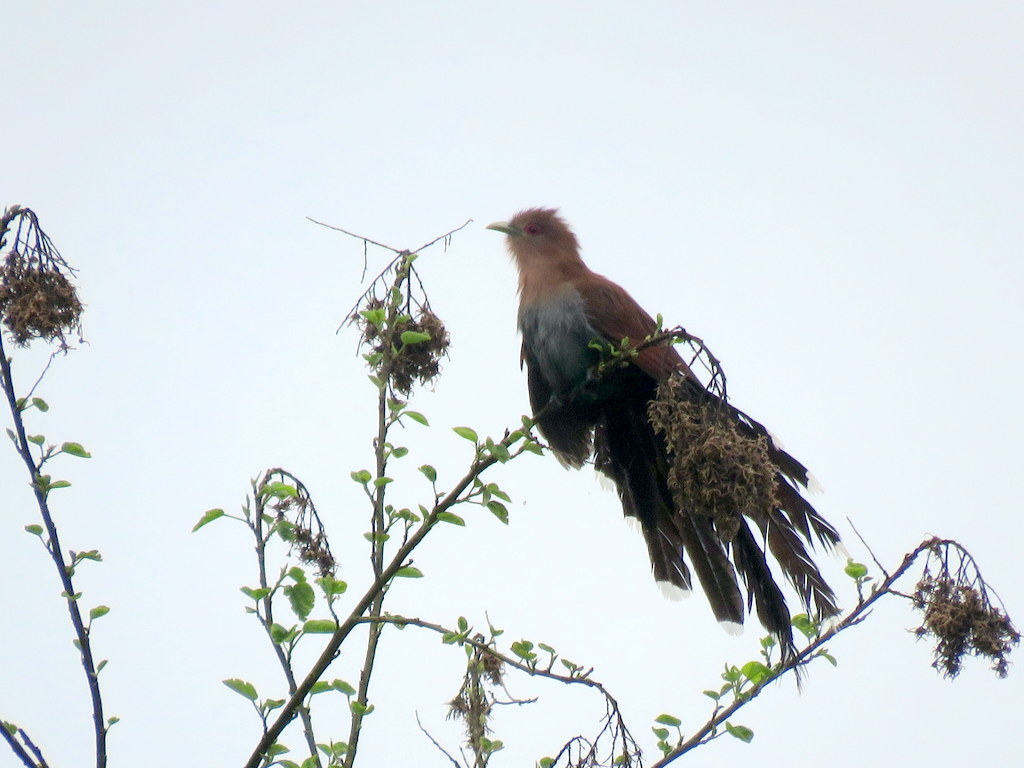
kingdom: Animalia
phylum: Chordata
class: Aves
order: Cuculiformes
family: Cuculidae
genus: Piaya
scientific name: Piaya cayana
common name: Squirrel cuckoo
